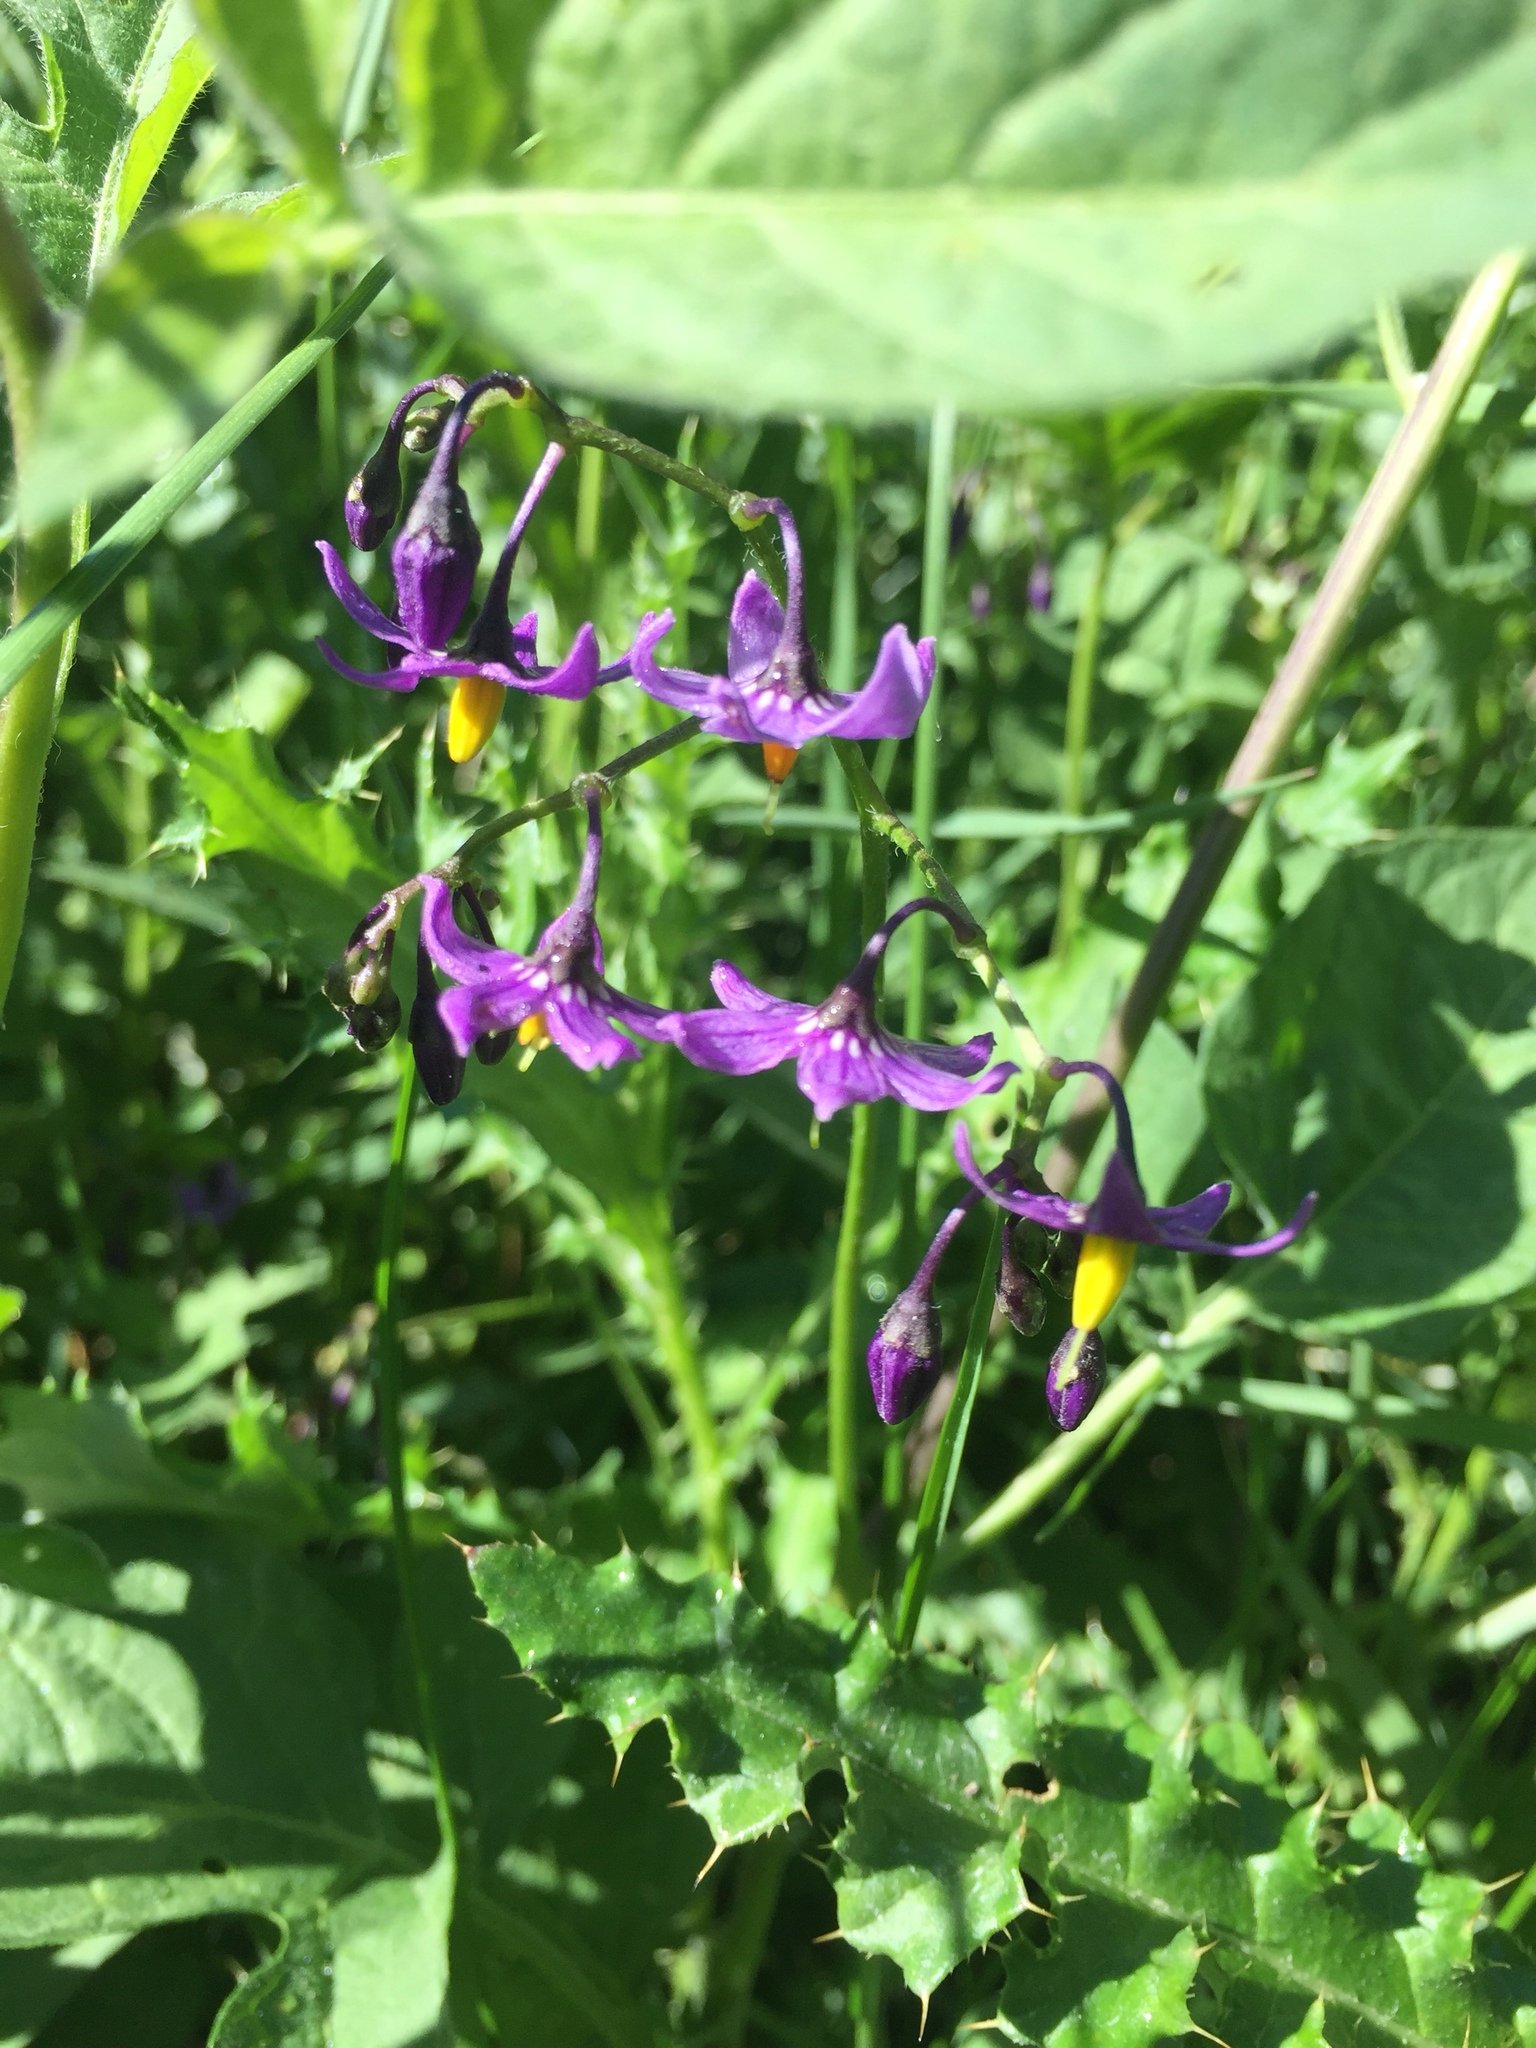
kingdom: Plantae
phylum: Tracheophyta
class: Magnoliopsida
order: Solanales
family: Solanaceae
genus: Solanum
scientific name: Solanum dulcamara
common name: Climbing nightshade
